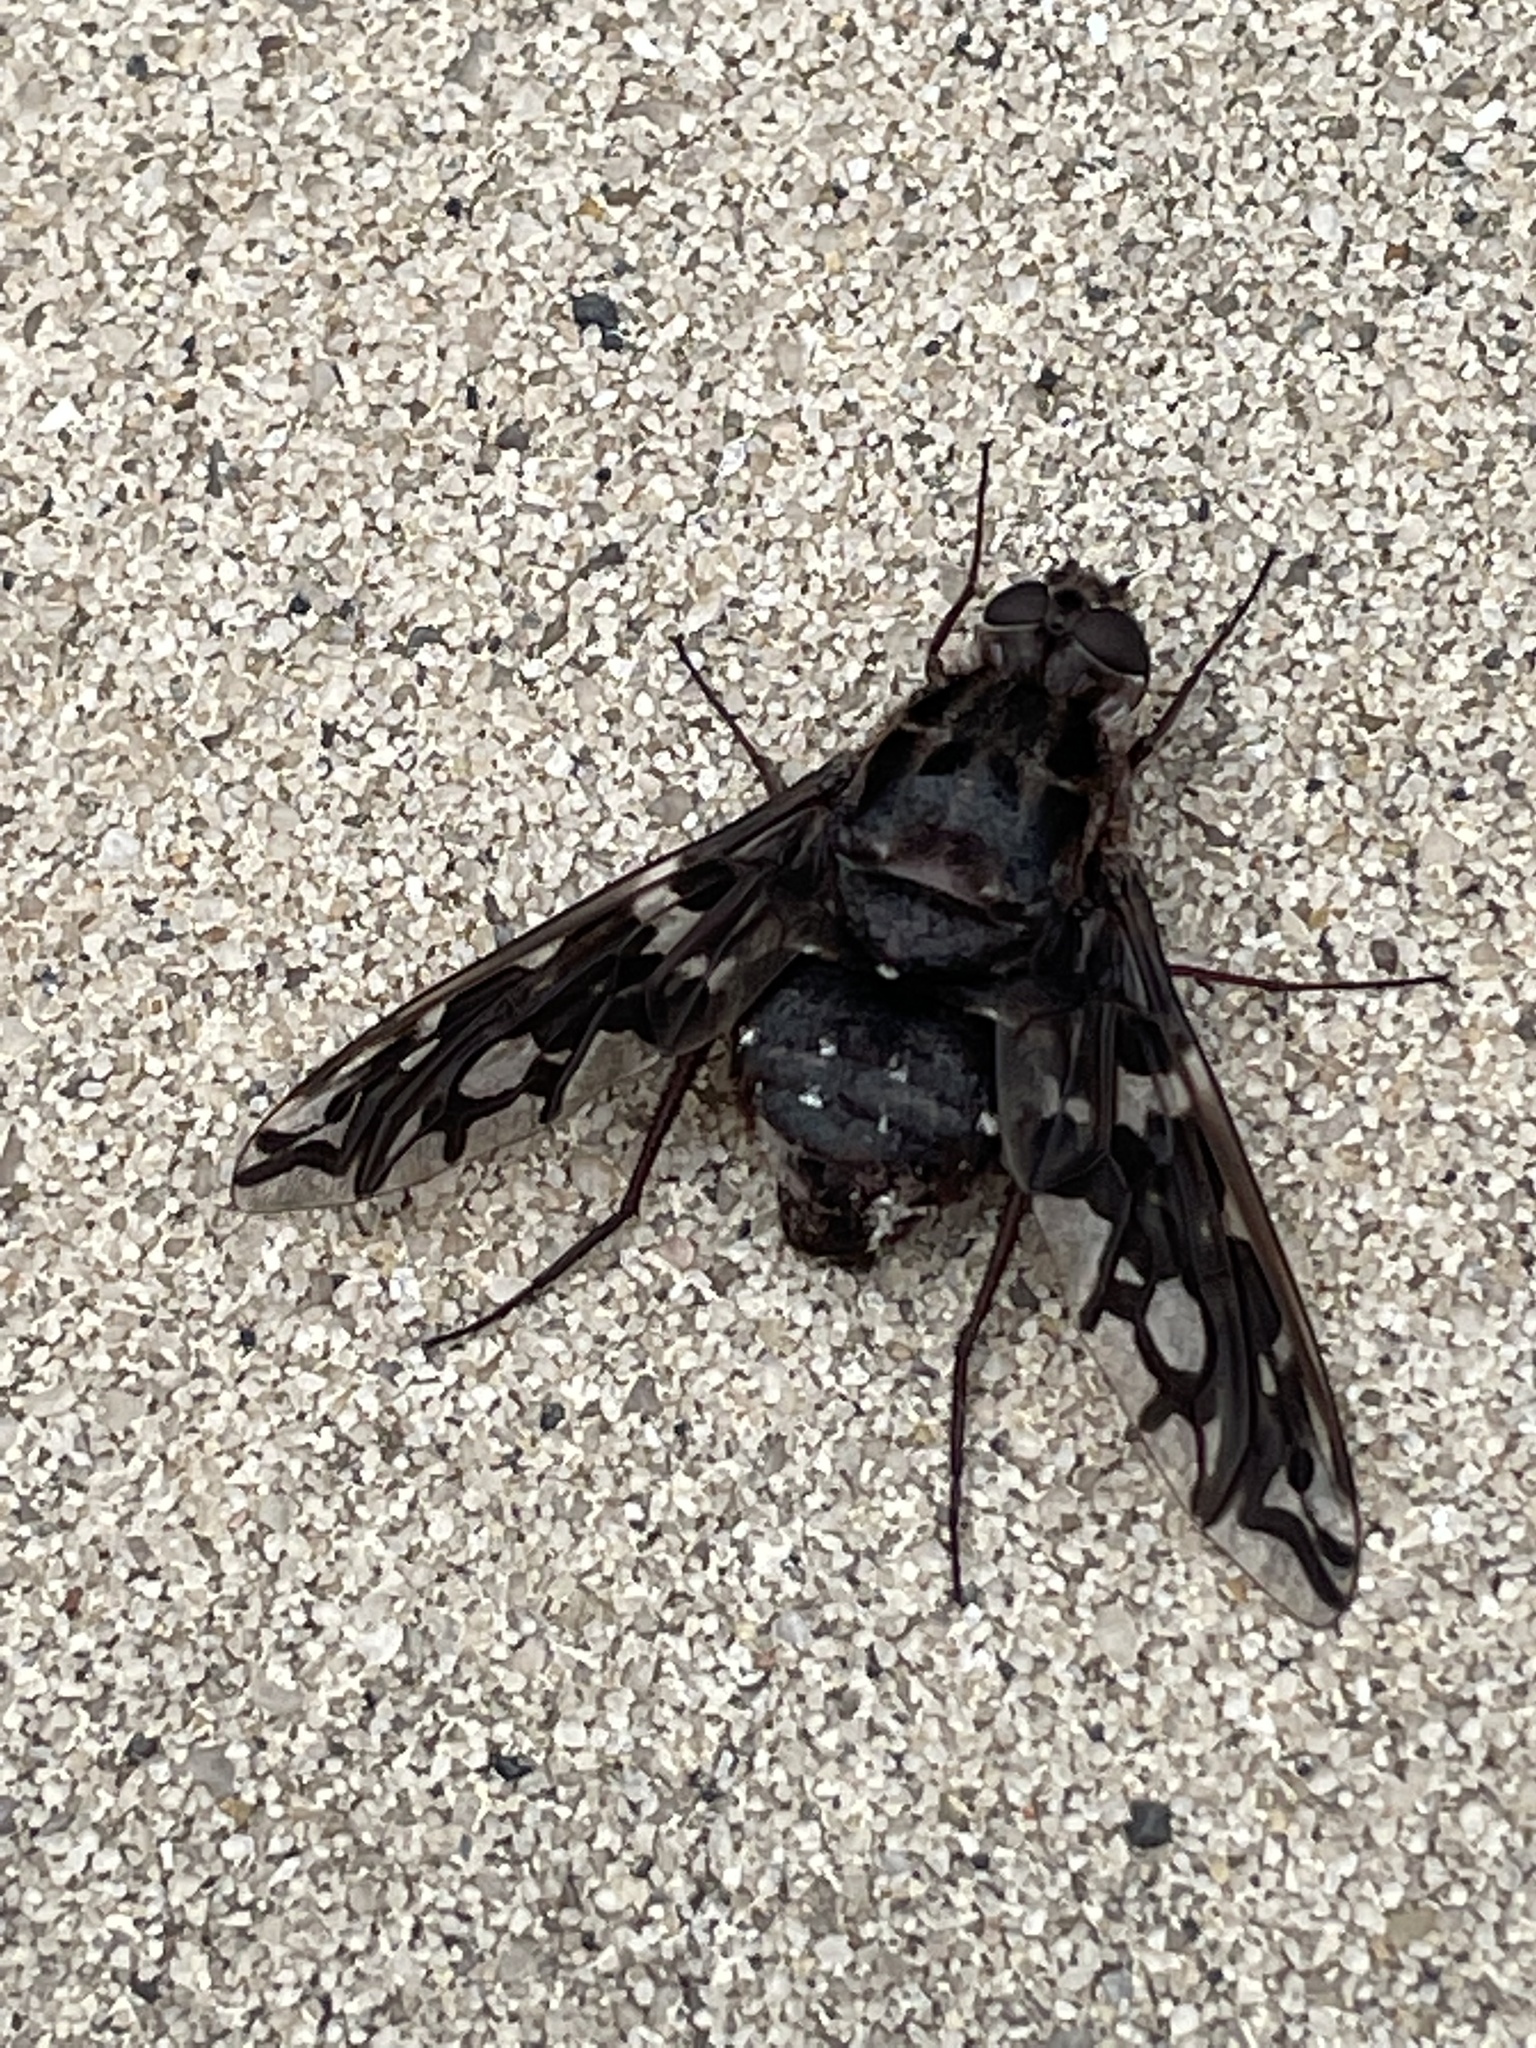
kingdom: Animalia
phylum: Arthropoda
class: Insecta
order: Diptera
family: Bombyliidae
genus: Xenox
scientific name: Xenox tigrinus
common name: Tiger bee fly
